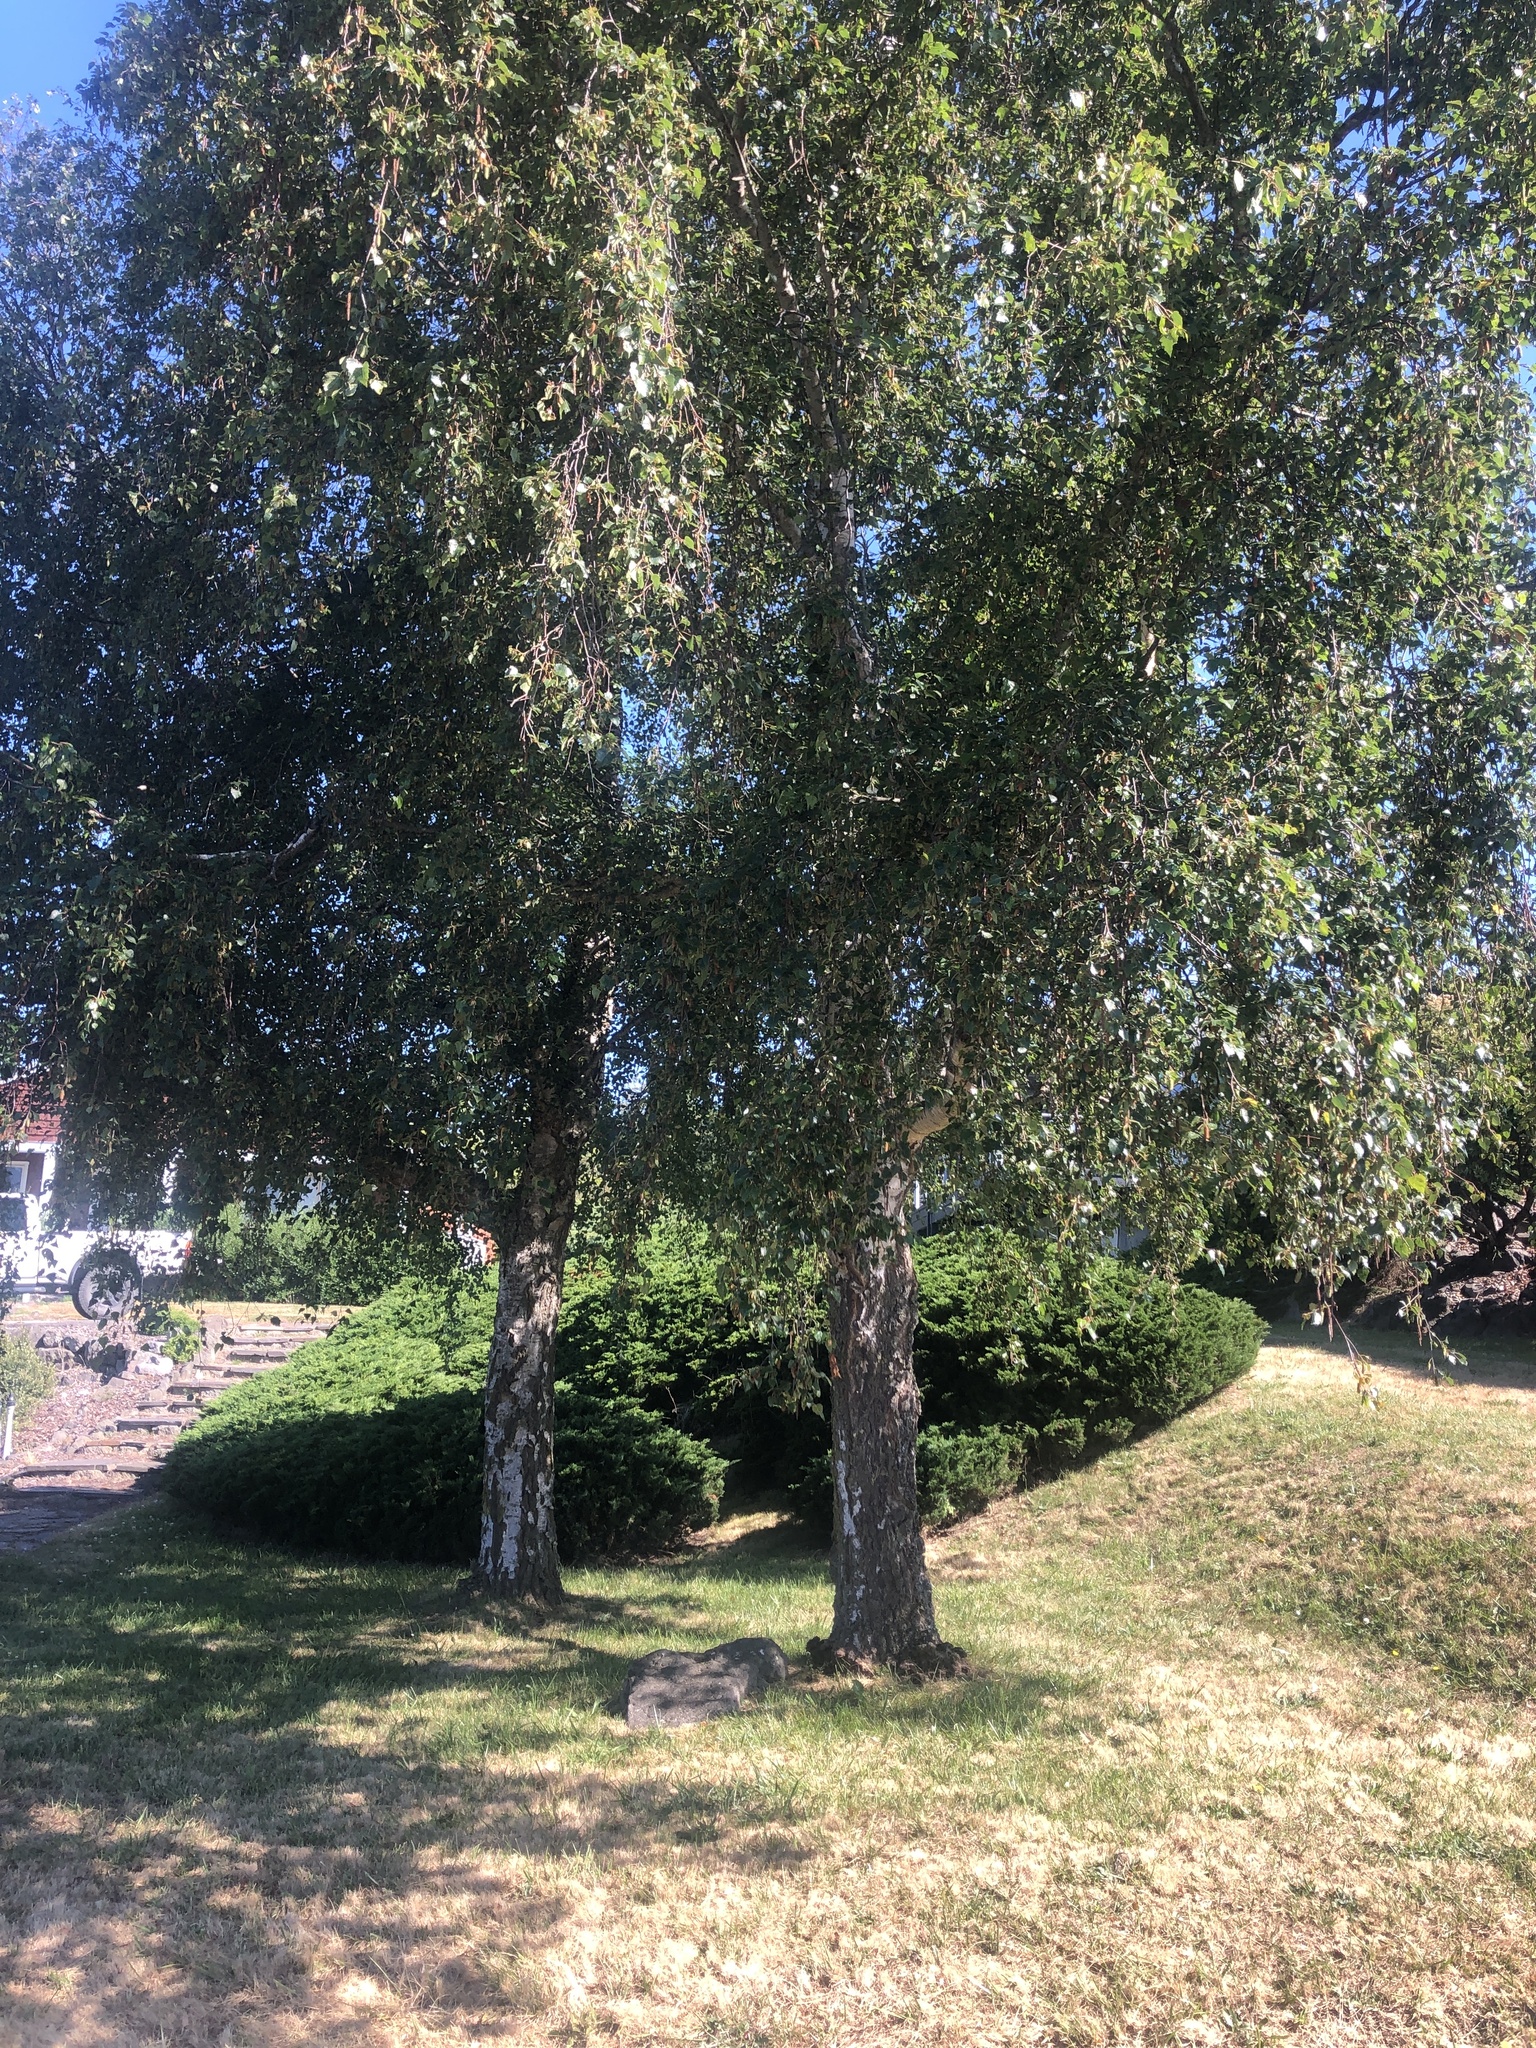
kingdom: Plantae
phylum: Tracheophyta
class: Magnoliopsida
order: Rosales
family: Rosaceae
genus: Pyrus
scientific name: Pyrus communis
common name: Pear
